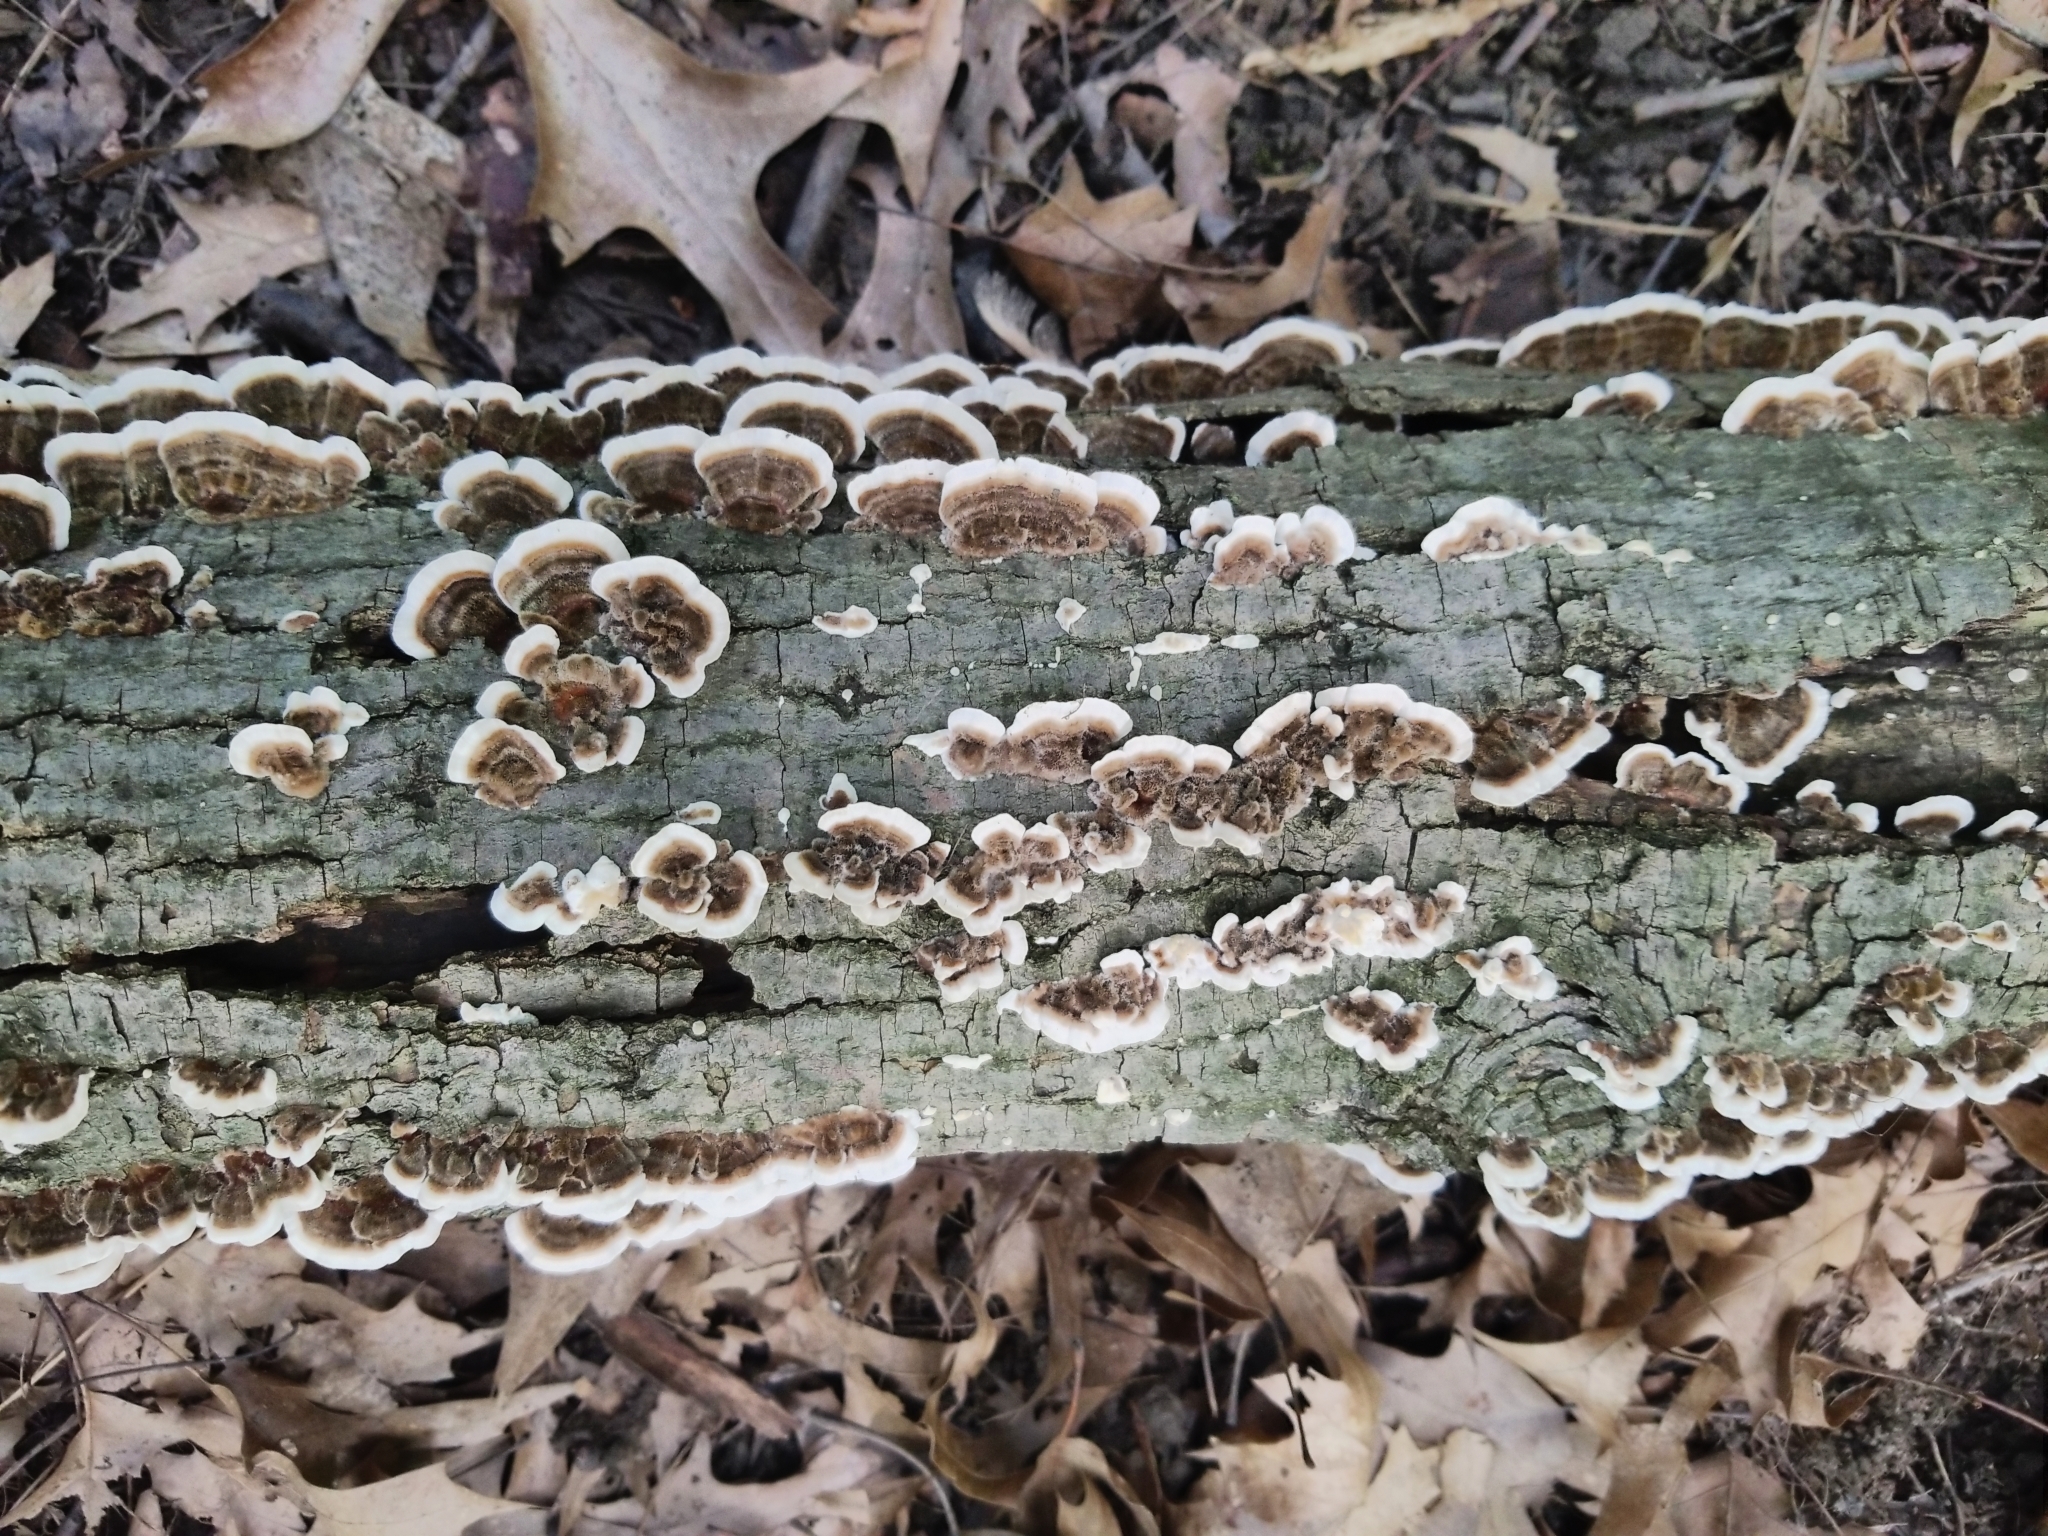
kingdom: Fungi
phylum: Basidiomycota
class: Agaricomycetes
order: Polyporales
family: Polyporaceae
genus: Trametes
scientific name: Trametes versicolor
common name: Turkeytail
